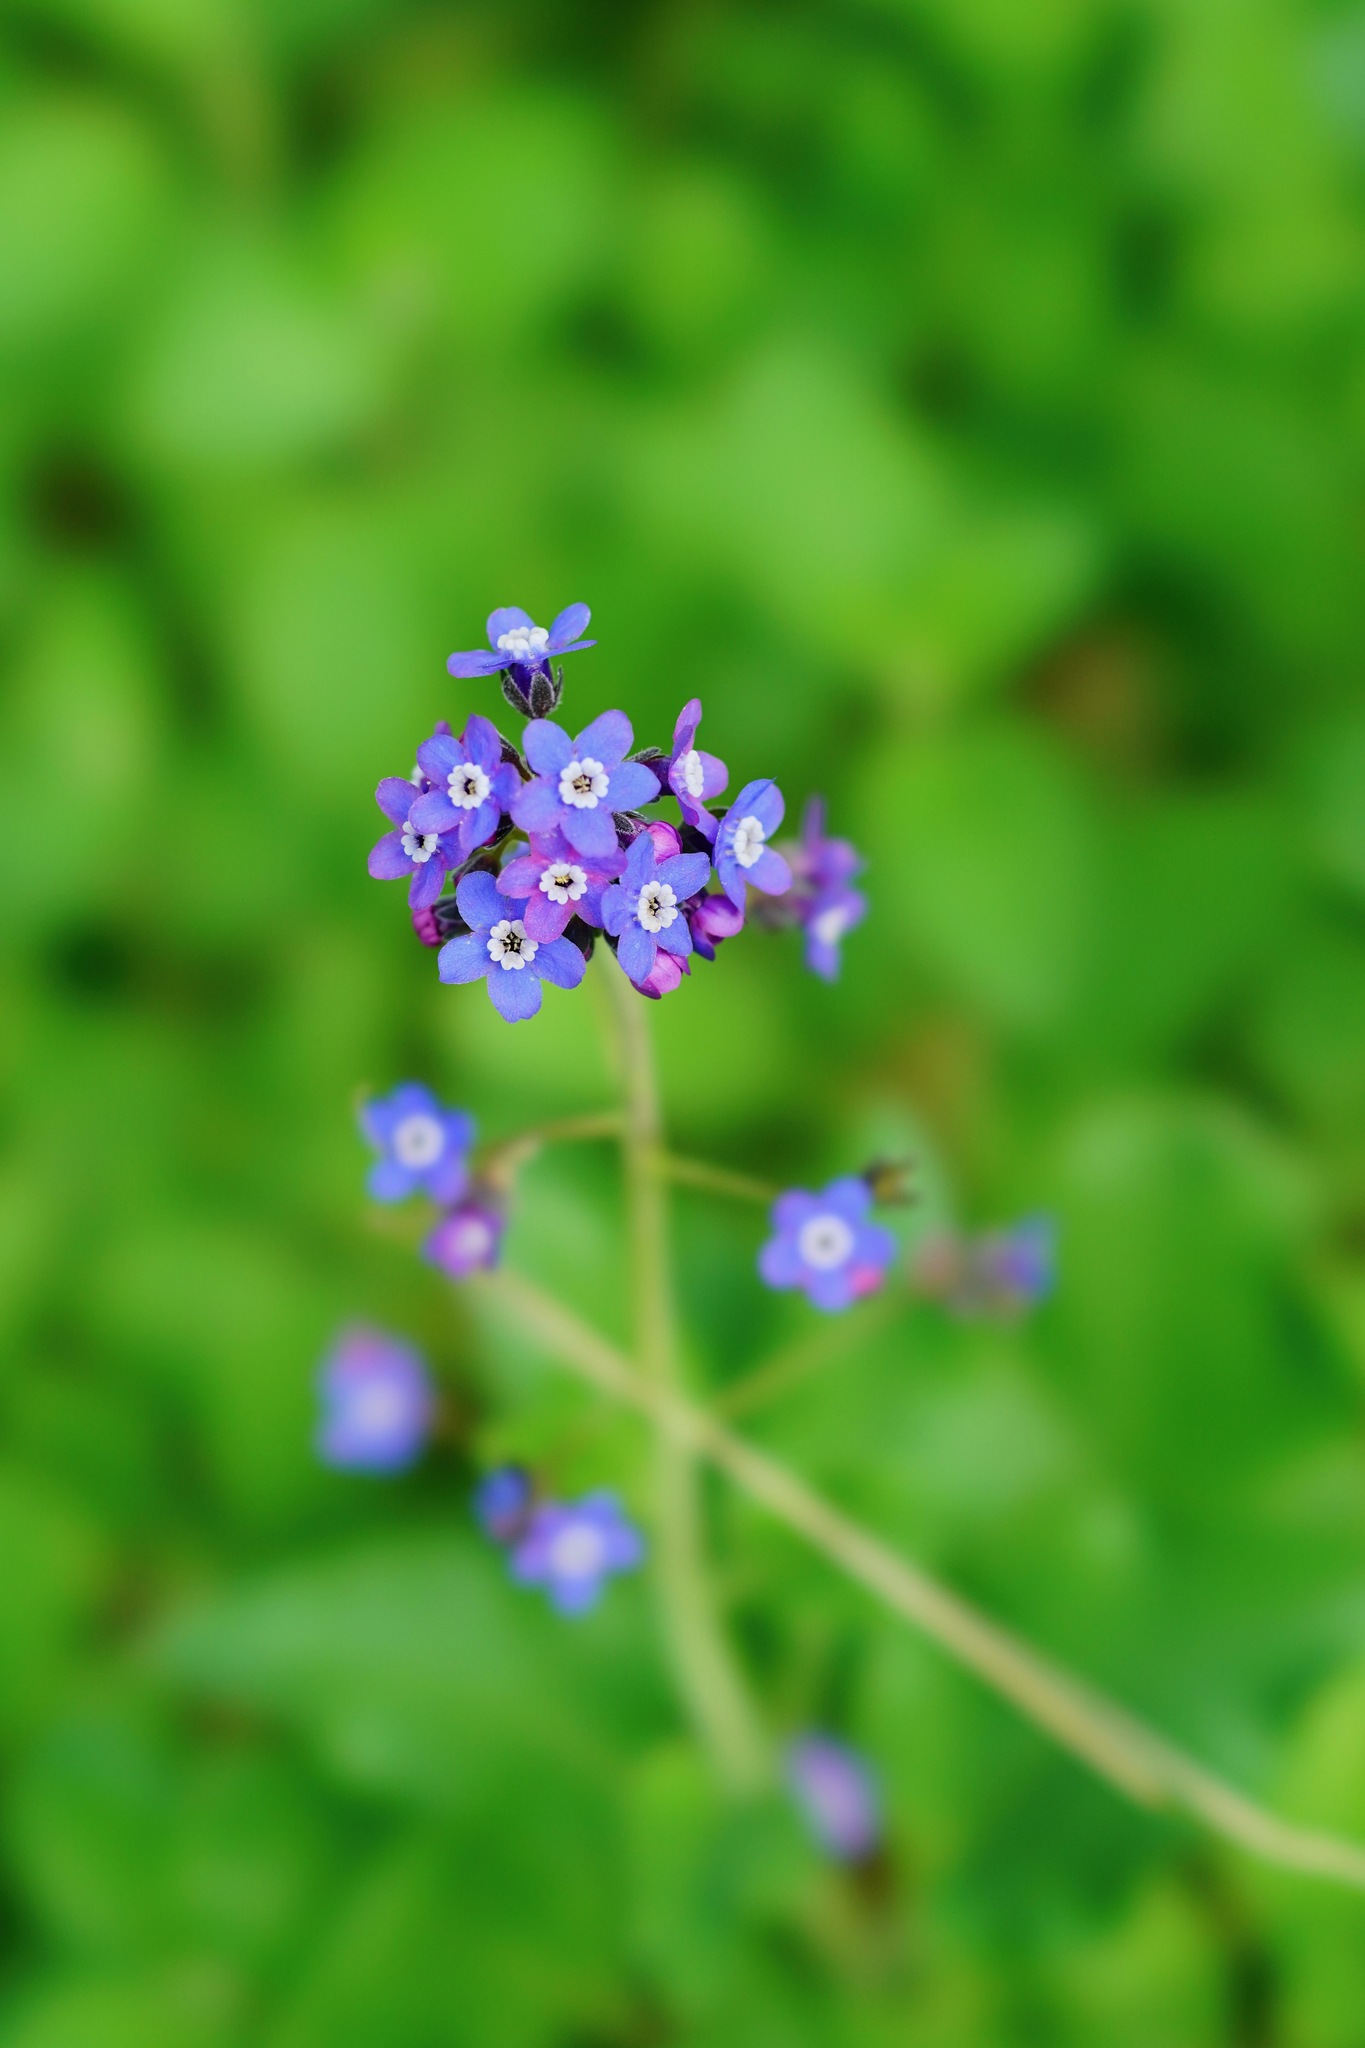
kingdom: Plantae
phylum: Tracheophyta
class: Magnoliopsida
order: Boraginales
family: Boraginaceae
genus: Adelinia
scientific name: Adelinia grande
